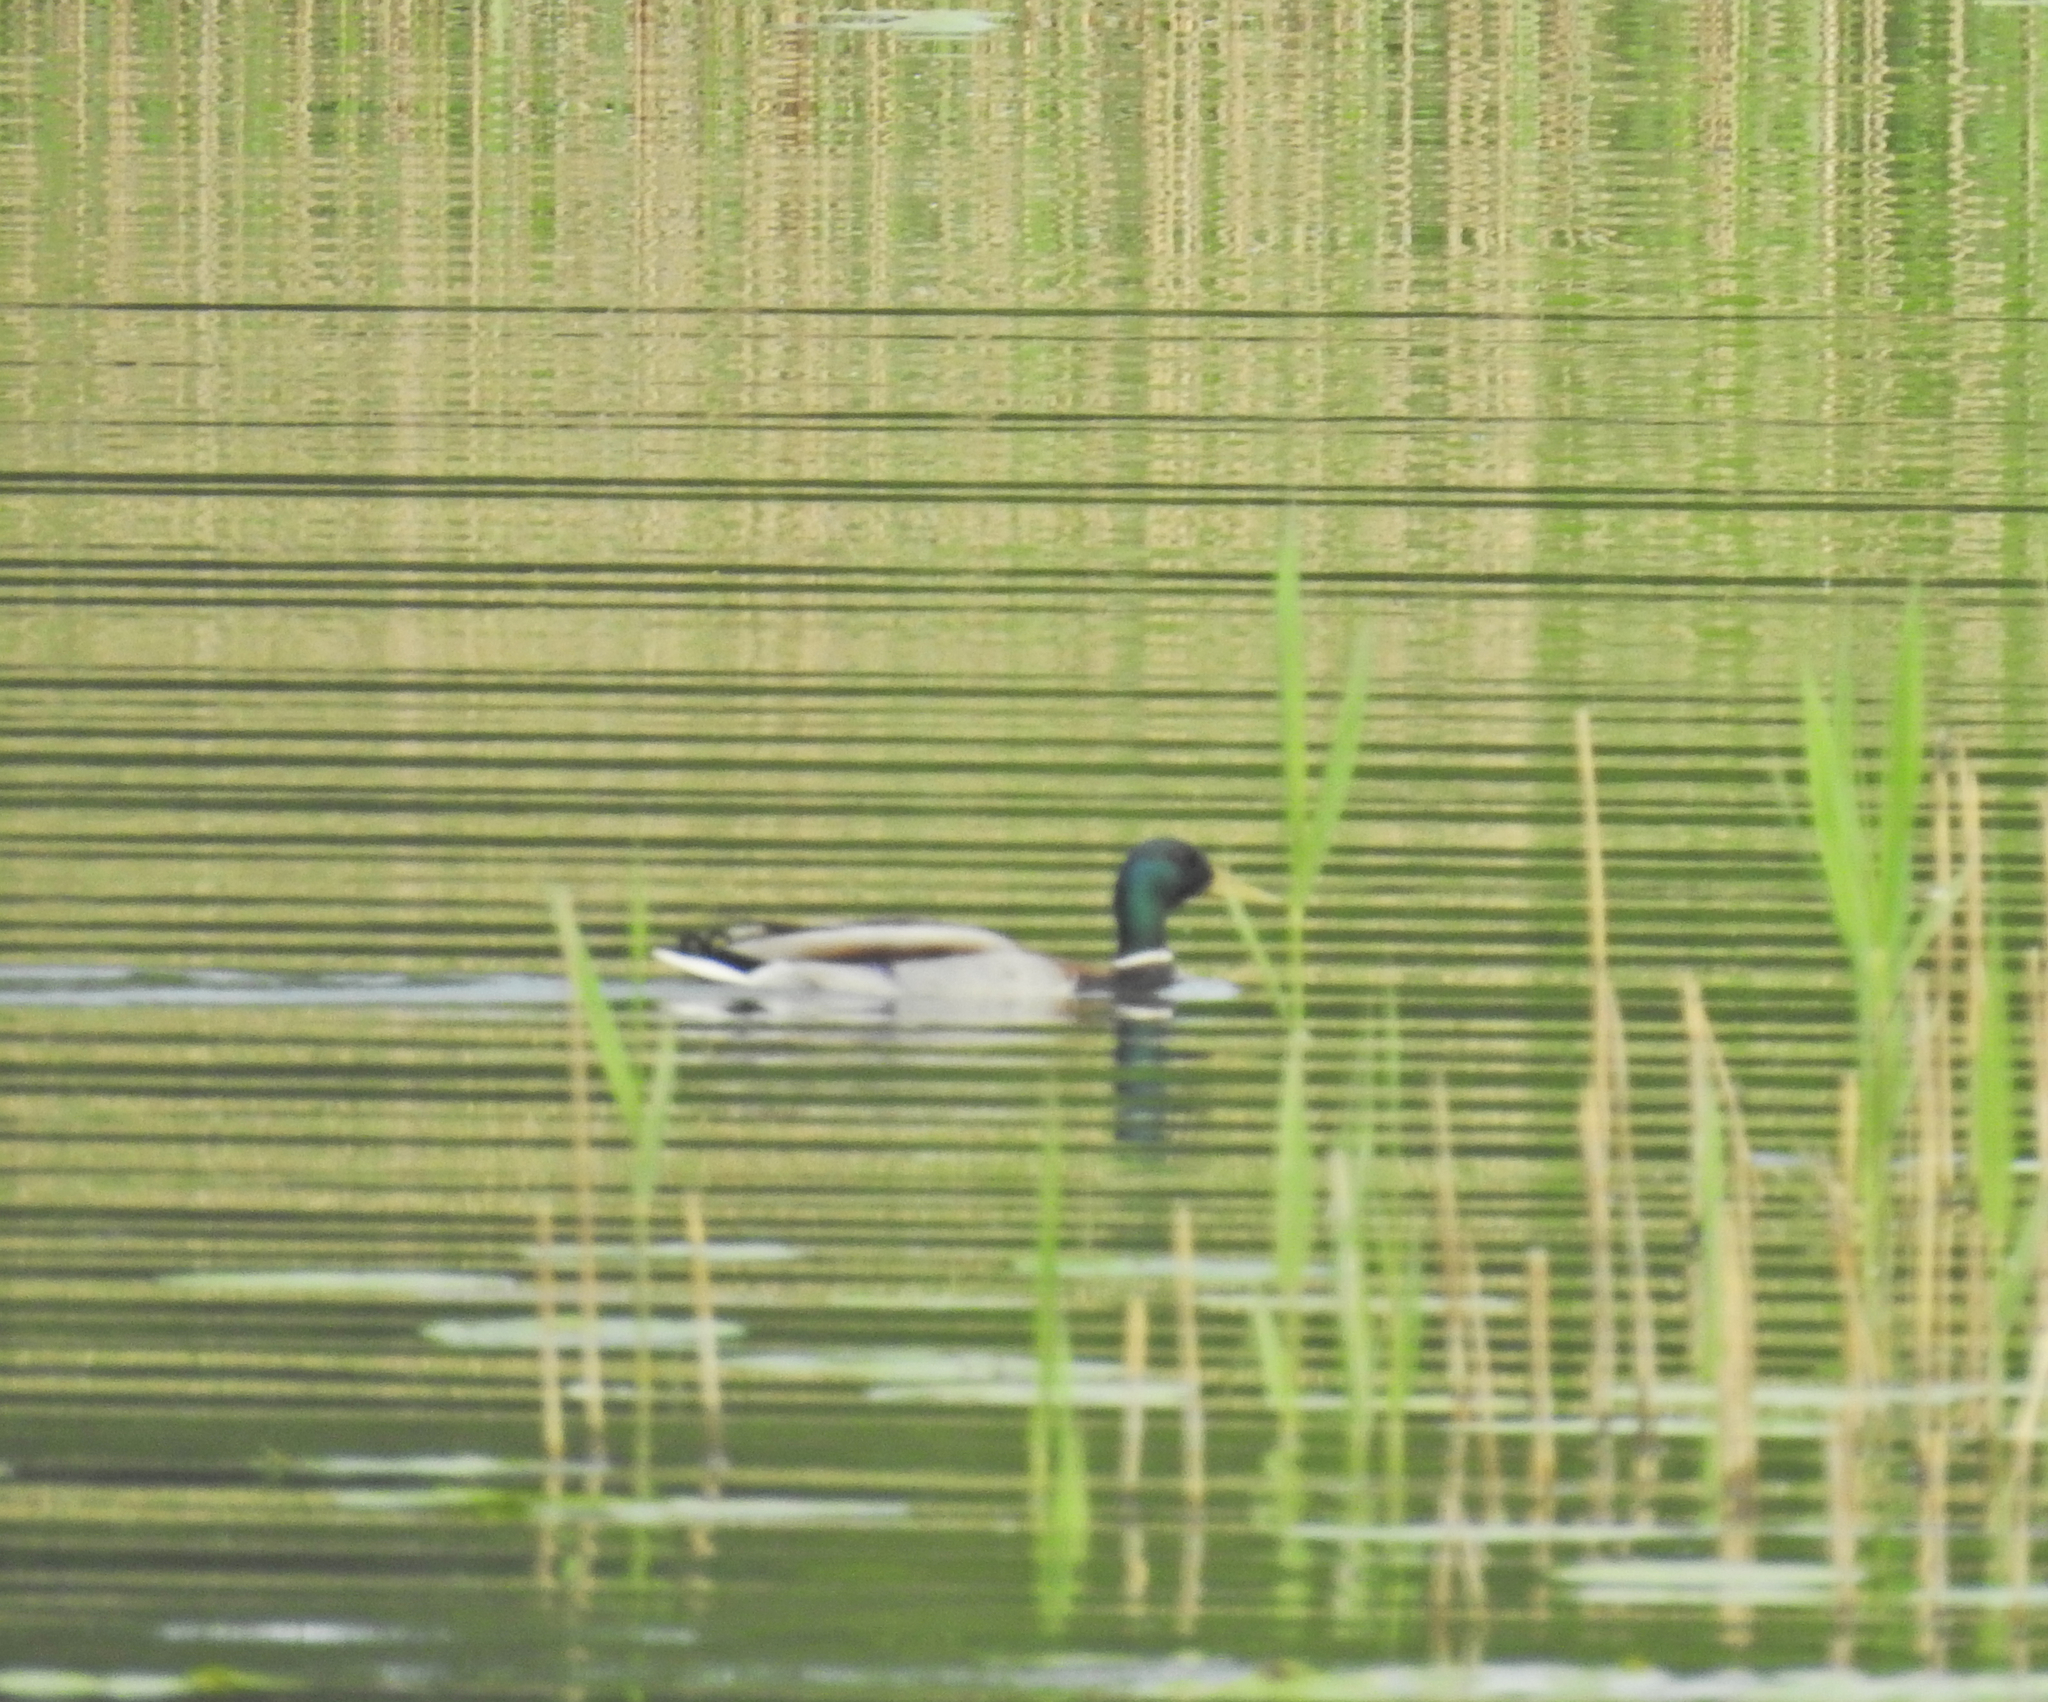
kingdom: Animalia
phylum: Chordata
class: Aves
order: Anseriformes
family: Anatidae
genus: Anas
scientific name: Anas platyrhynchos
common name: Mallard
